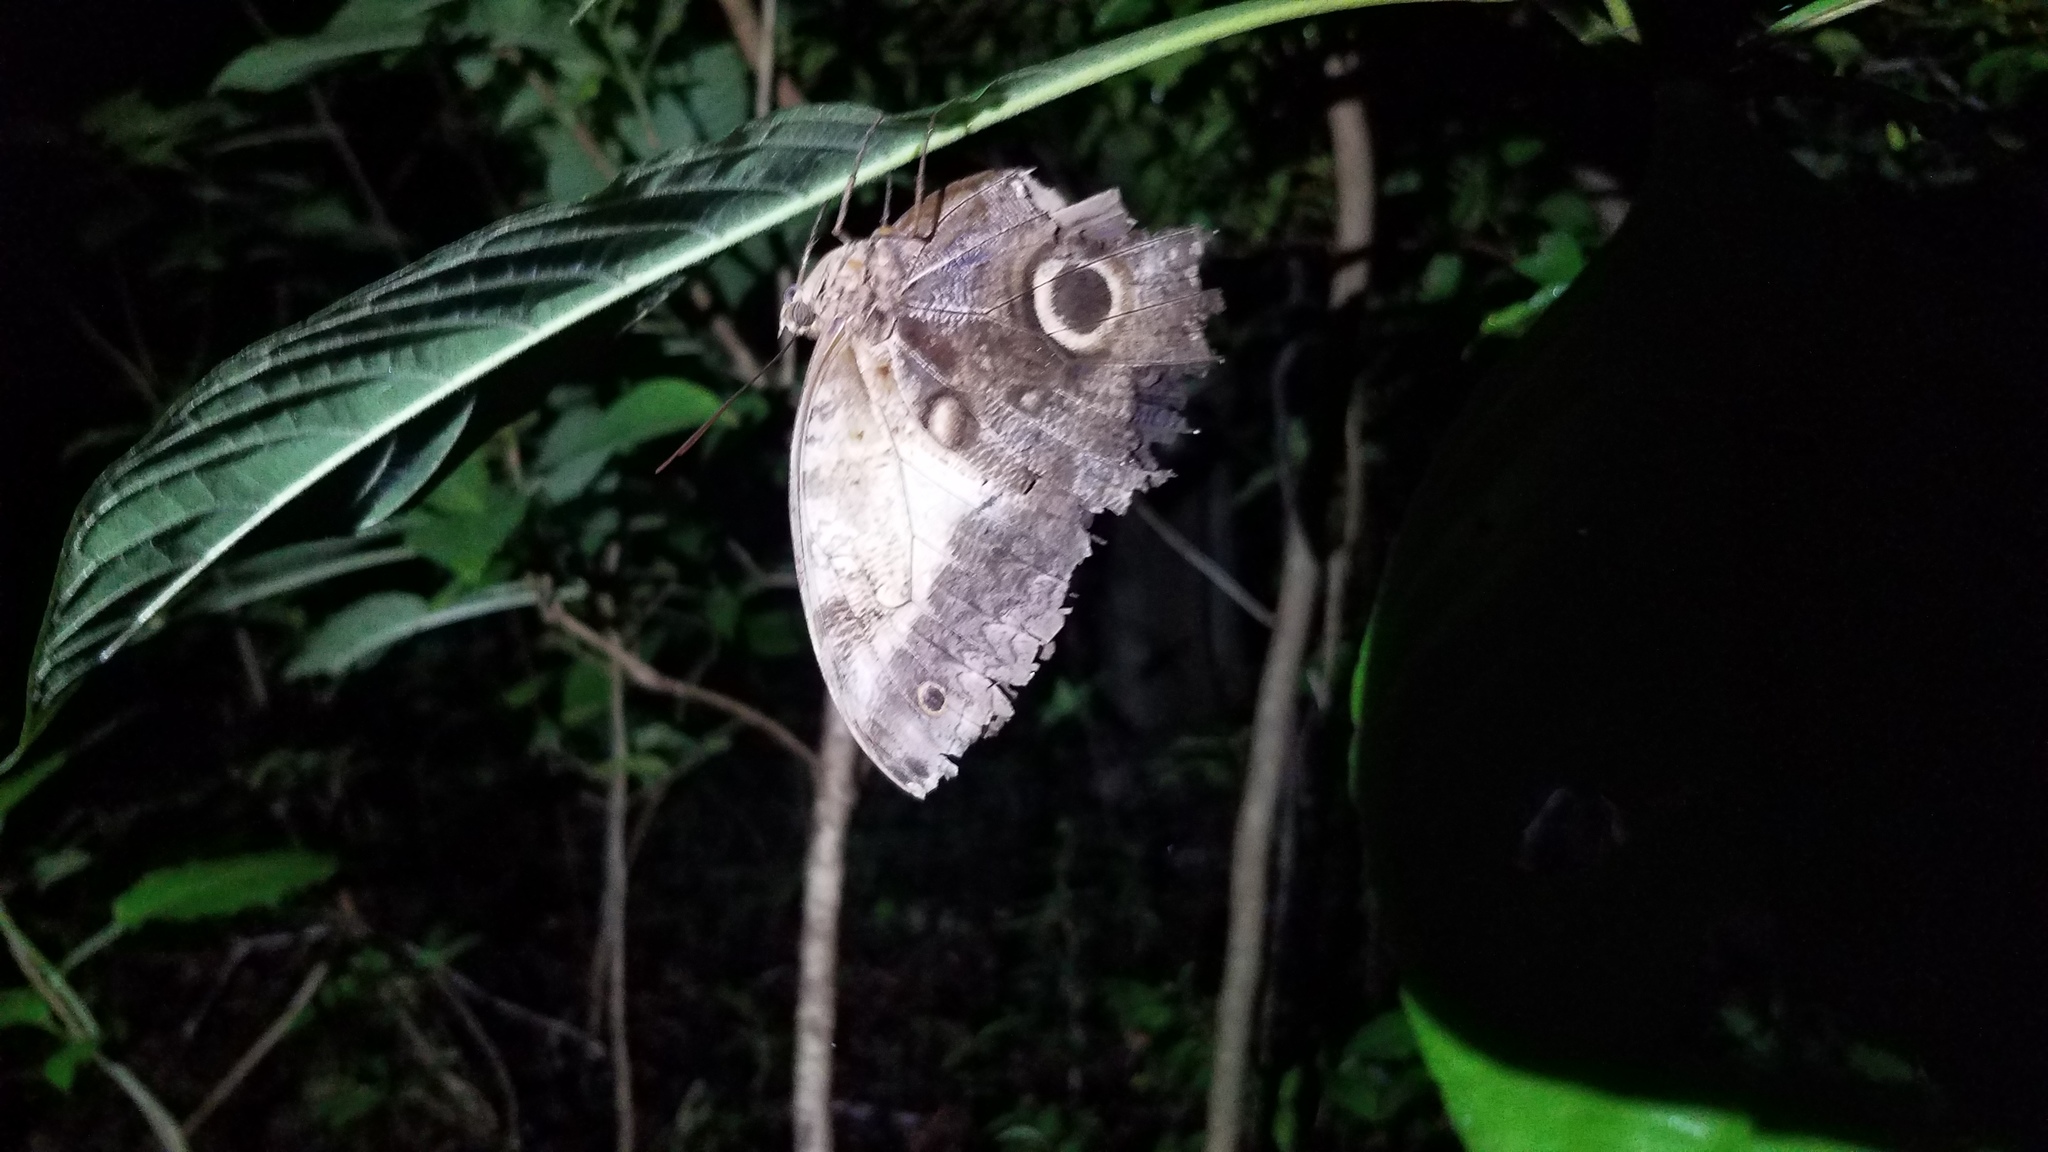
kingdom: Animalia
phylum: Arthropoda
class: Insecta
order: Lepidoptera
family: Nymphalidae
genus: Caligo
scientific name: Caligo telamonius
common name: Pale owl-butterfly
